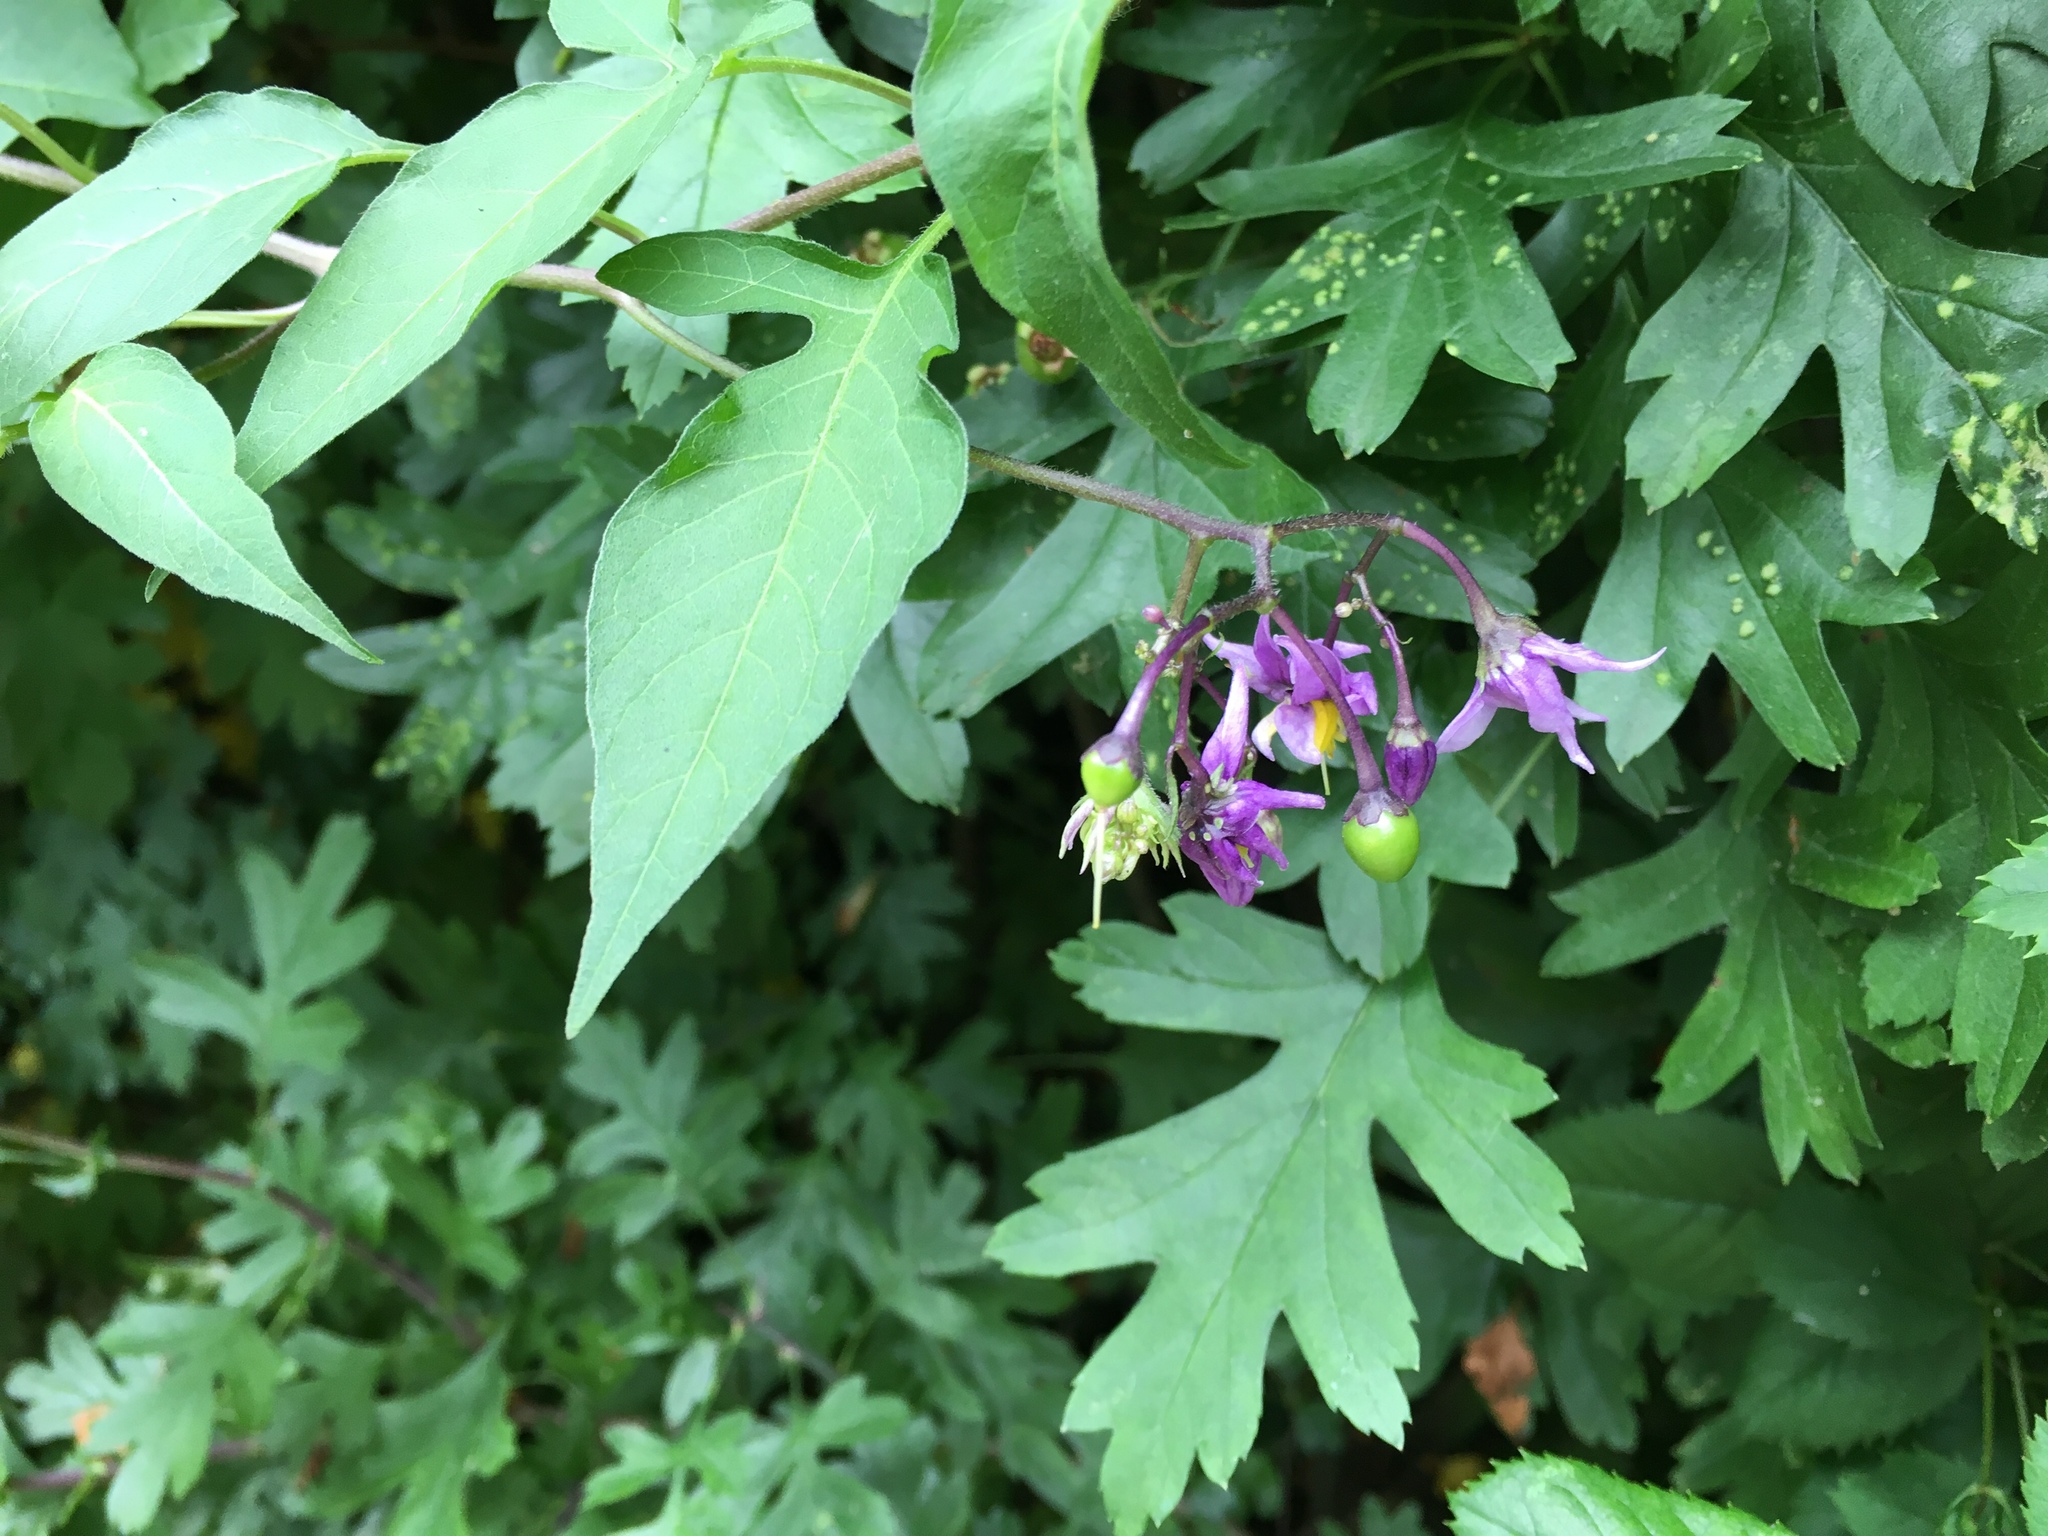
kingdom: Plantae
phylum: Tracheophyta
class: Magnoliopsida
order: Solanales
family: Solanaceae
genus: Solanum
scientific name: Solanum dulcamara
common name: Climbing nightshade
